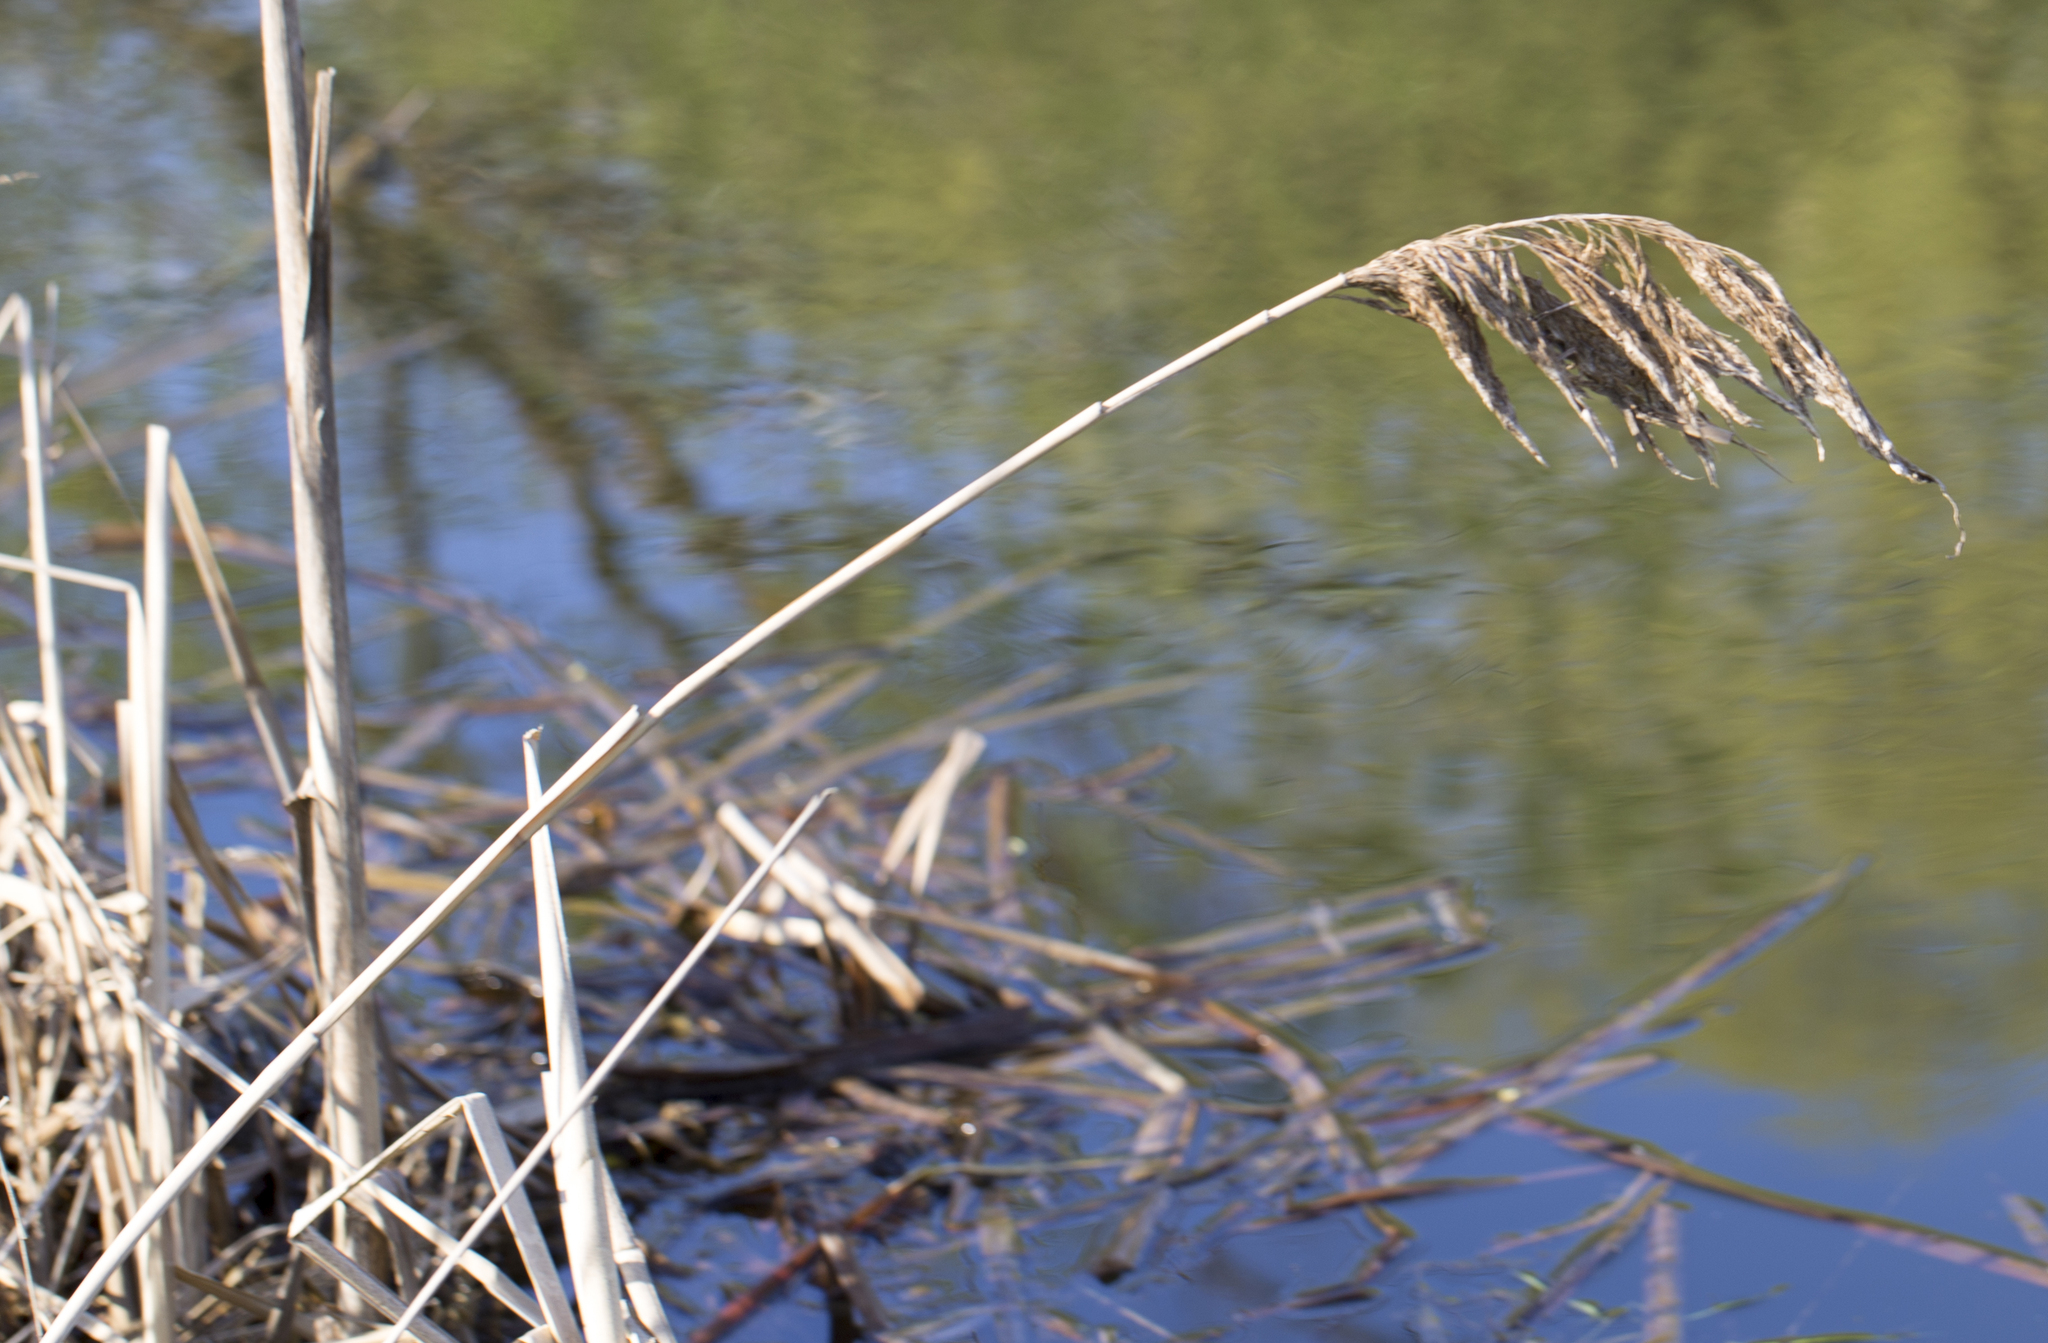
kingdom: Plantae
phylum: Tracheophyta
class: Liliopsida
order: Poales
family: Poaceae
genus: Phragmites
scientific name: Phragmites australis
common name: Common reed
